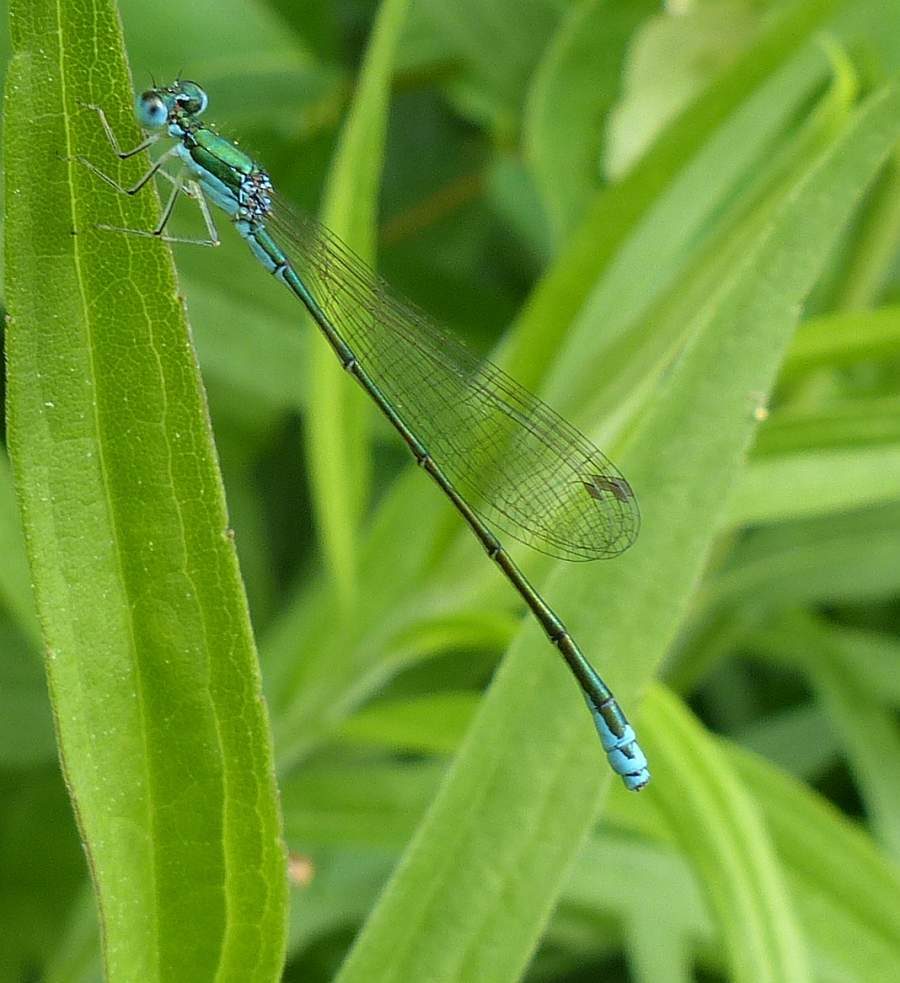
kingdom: Animalia
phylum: Arthropoda
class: Insecta
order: Odonata
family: Coenagrionidae
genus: Nehalennia
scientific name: Nehalennia irene
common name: Sedge sprite
